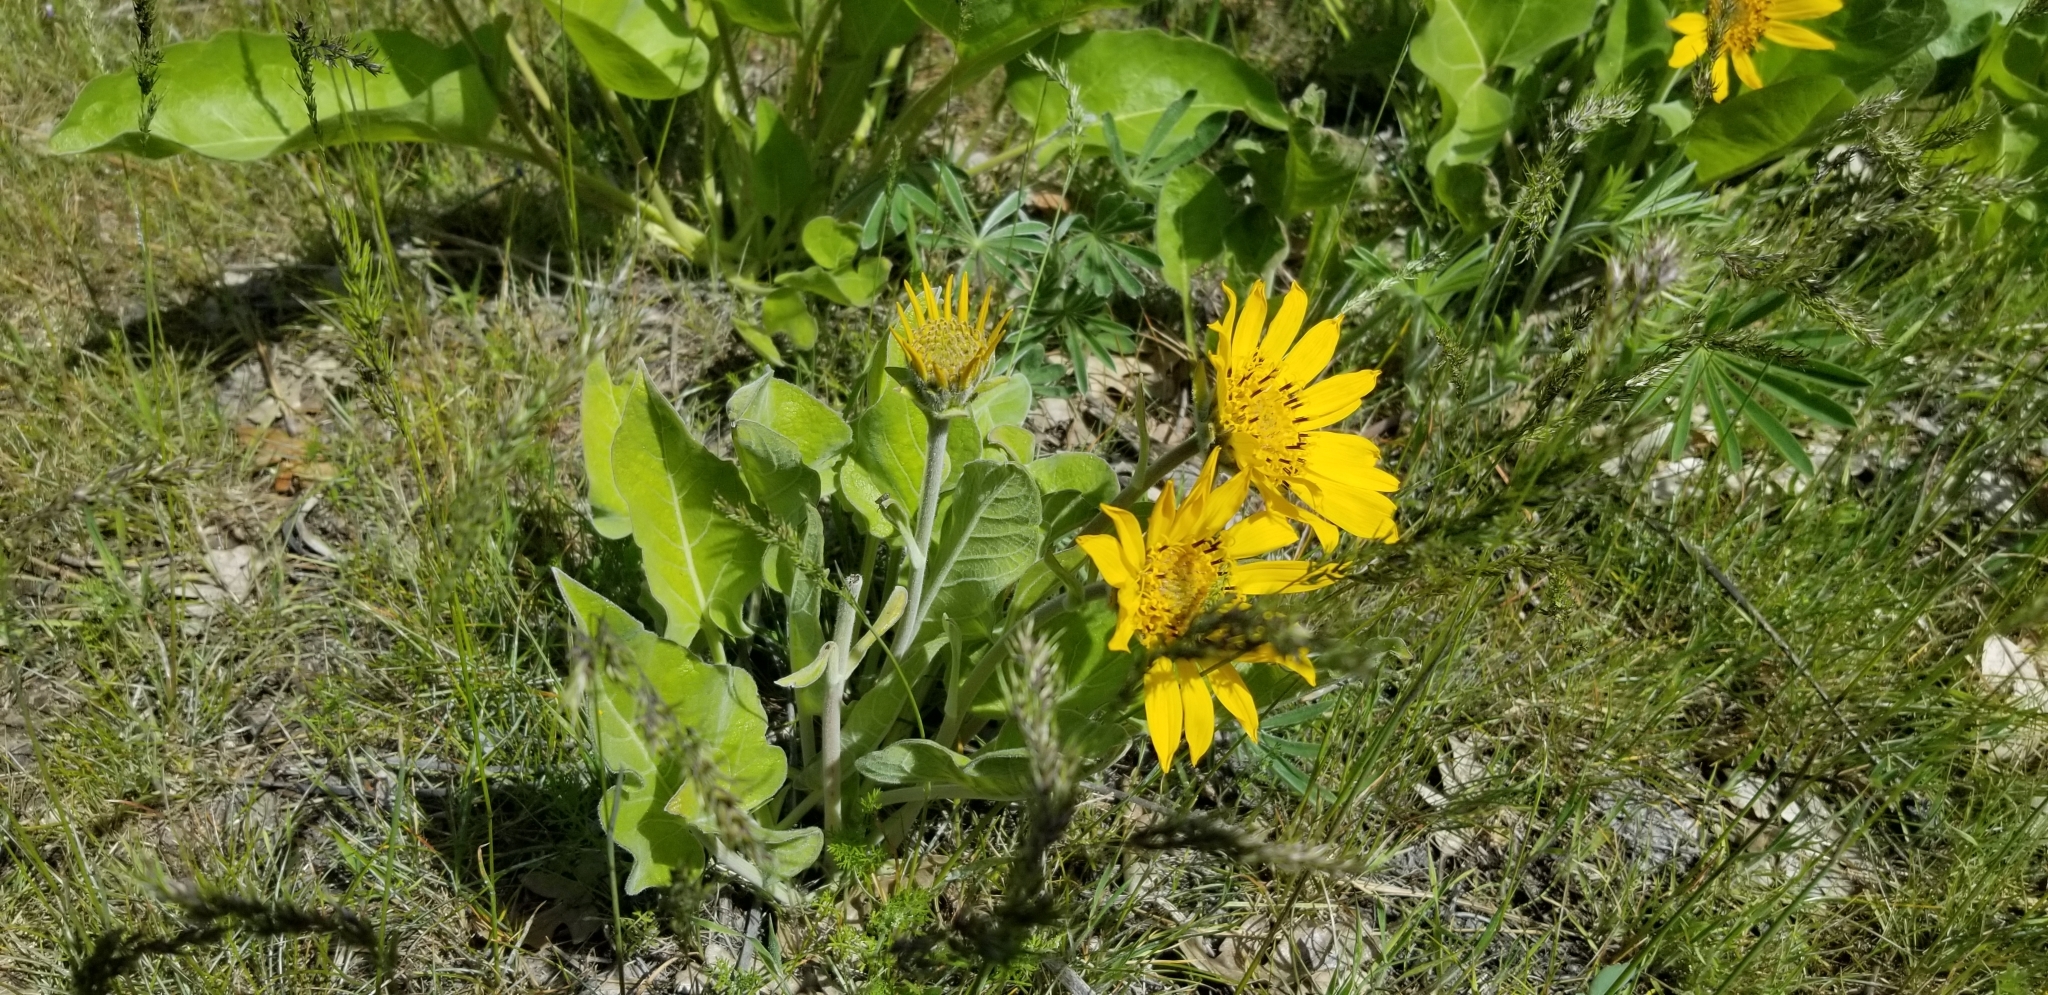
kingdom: Plantae
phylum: Tracheophyta
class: Magnoliopsida
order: Asterales
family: Asteraceae
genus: Wyethia
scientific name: Wyethia sagittata
